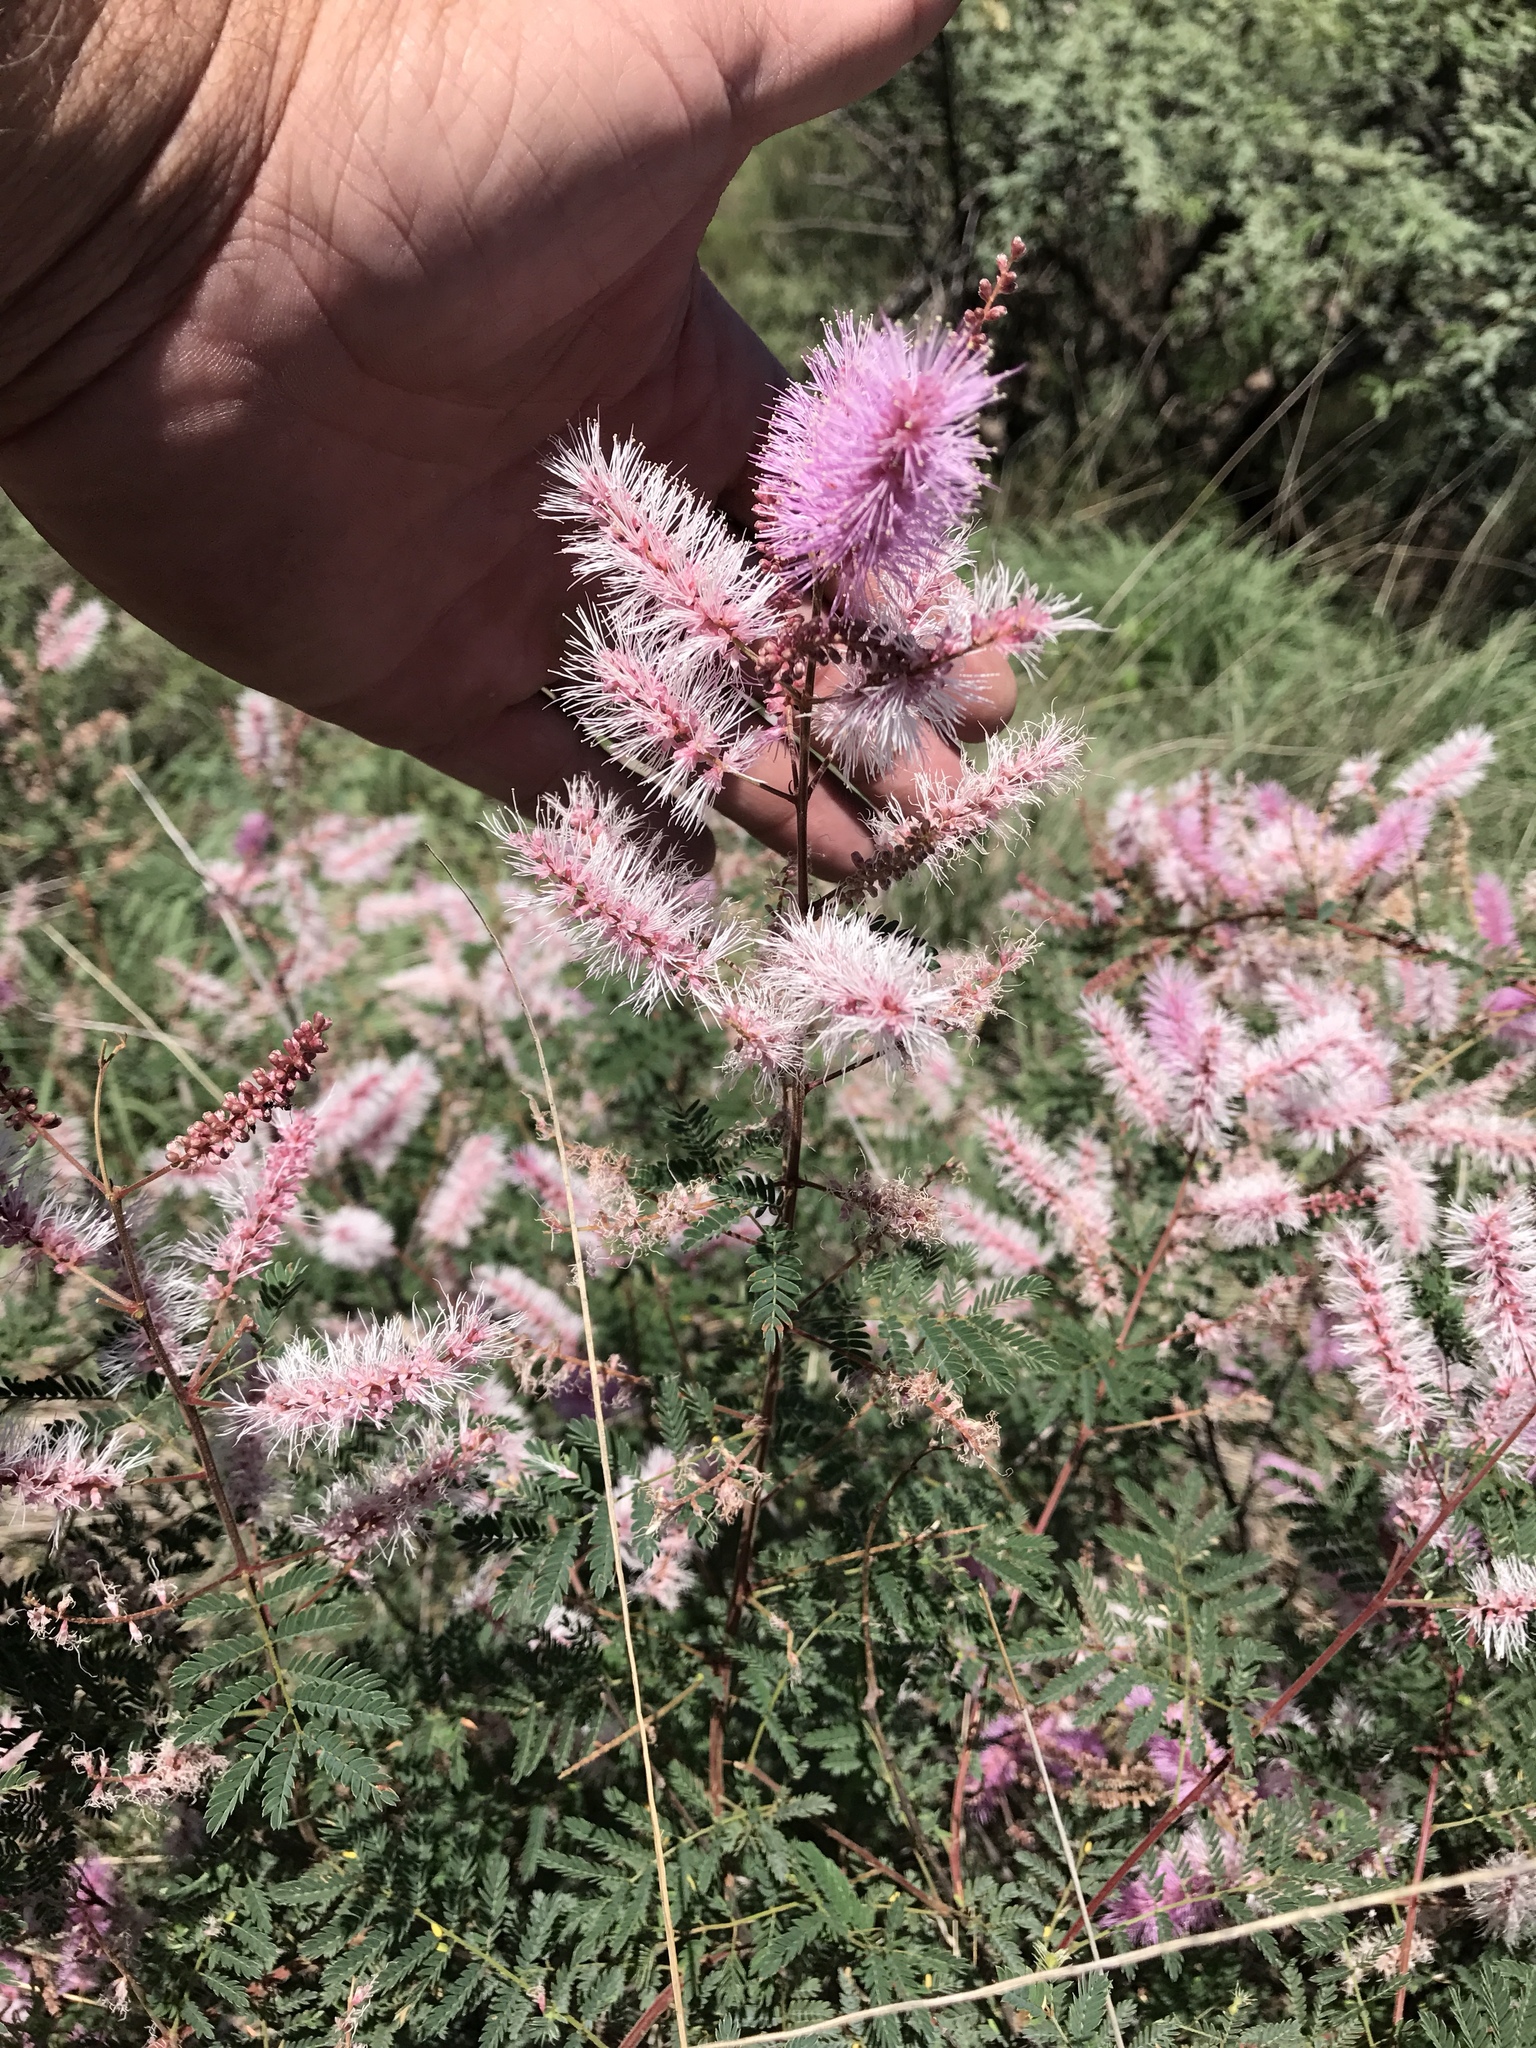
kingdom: Plantae
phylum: Tracheophyta
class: Magnoliopsida
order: Fabales
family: Fabaceae
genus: Mimosa
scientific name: Mimosa dysocarpa
